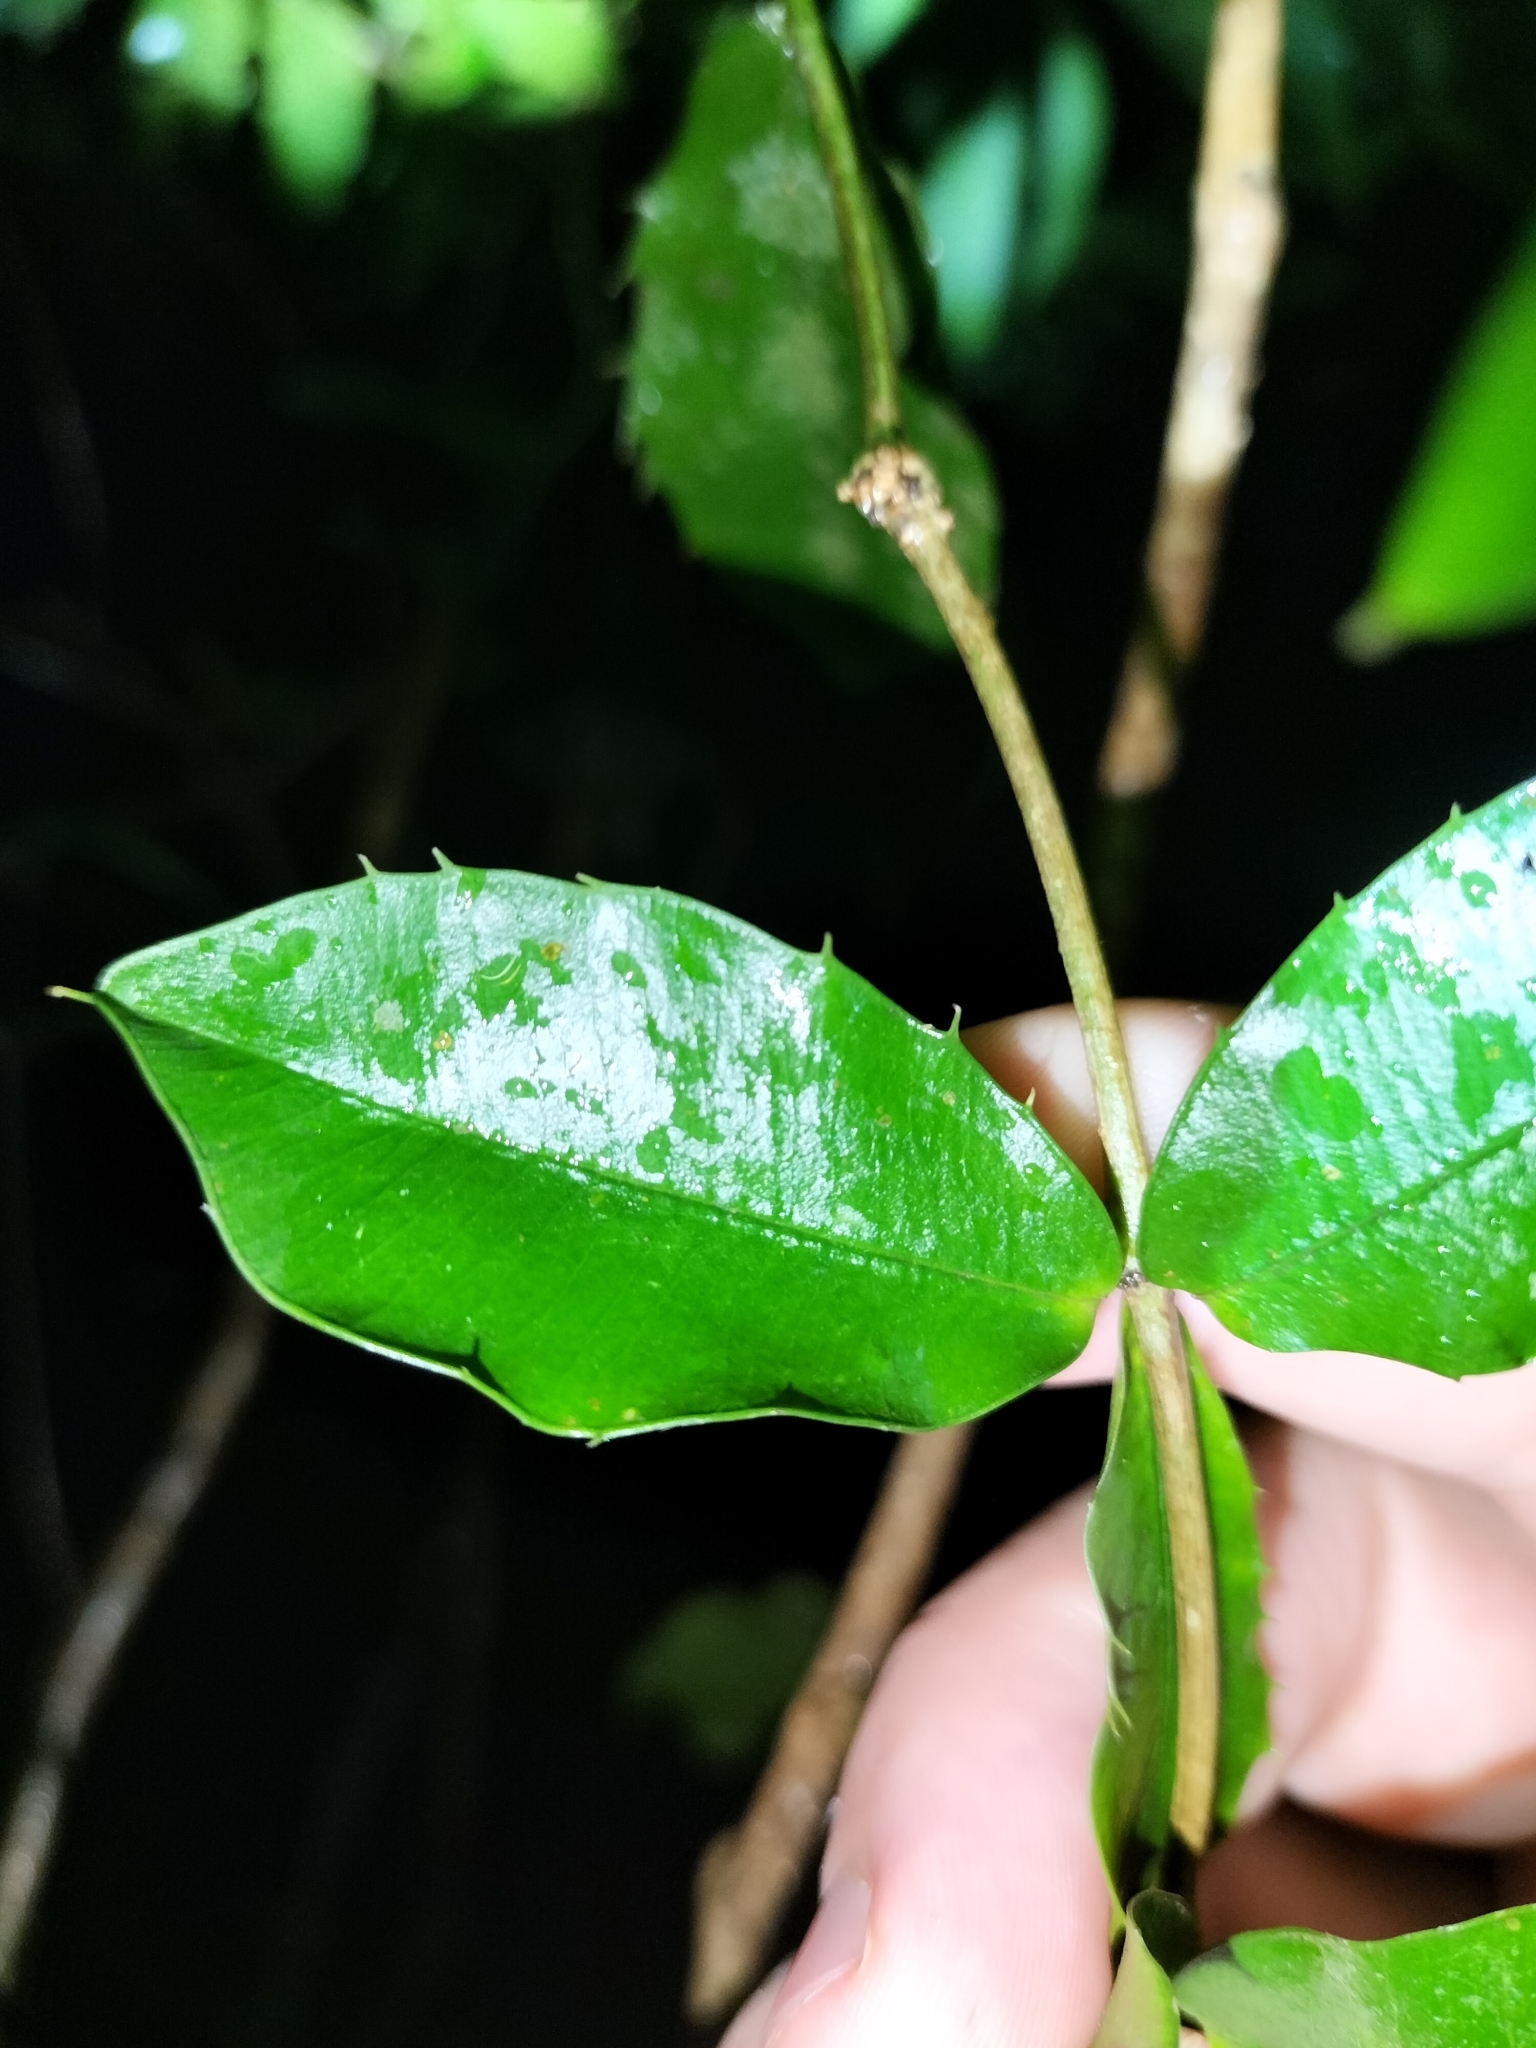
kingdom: Plantae
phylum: Tracheophyta
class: Magnoliopsida
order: Gentianales
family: Apocynaceae
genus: Alyxia
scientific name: Alyxia ilicifolia
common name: Chainfruit
